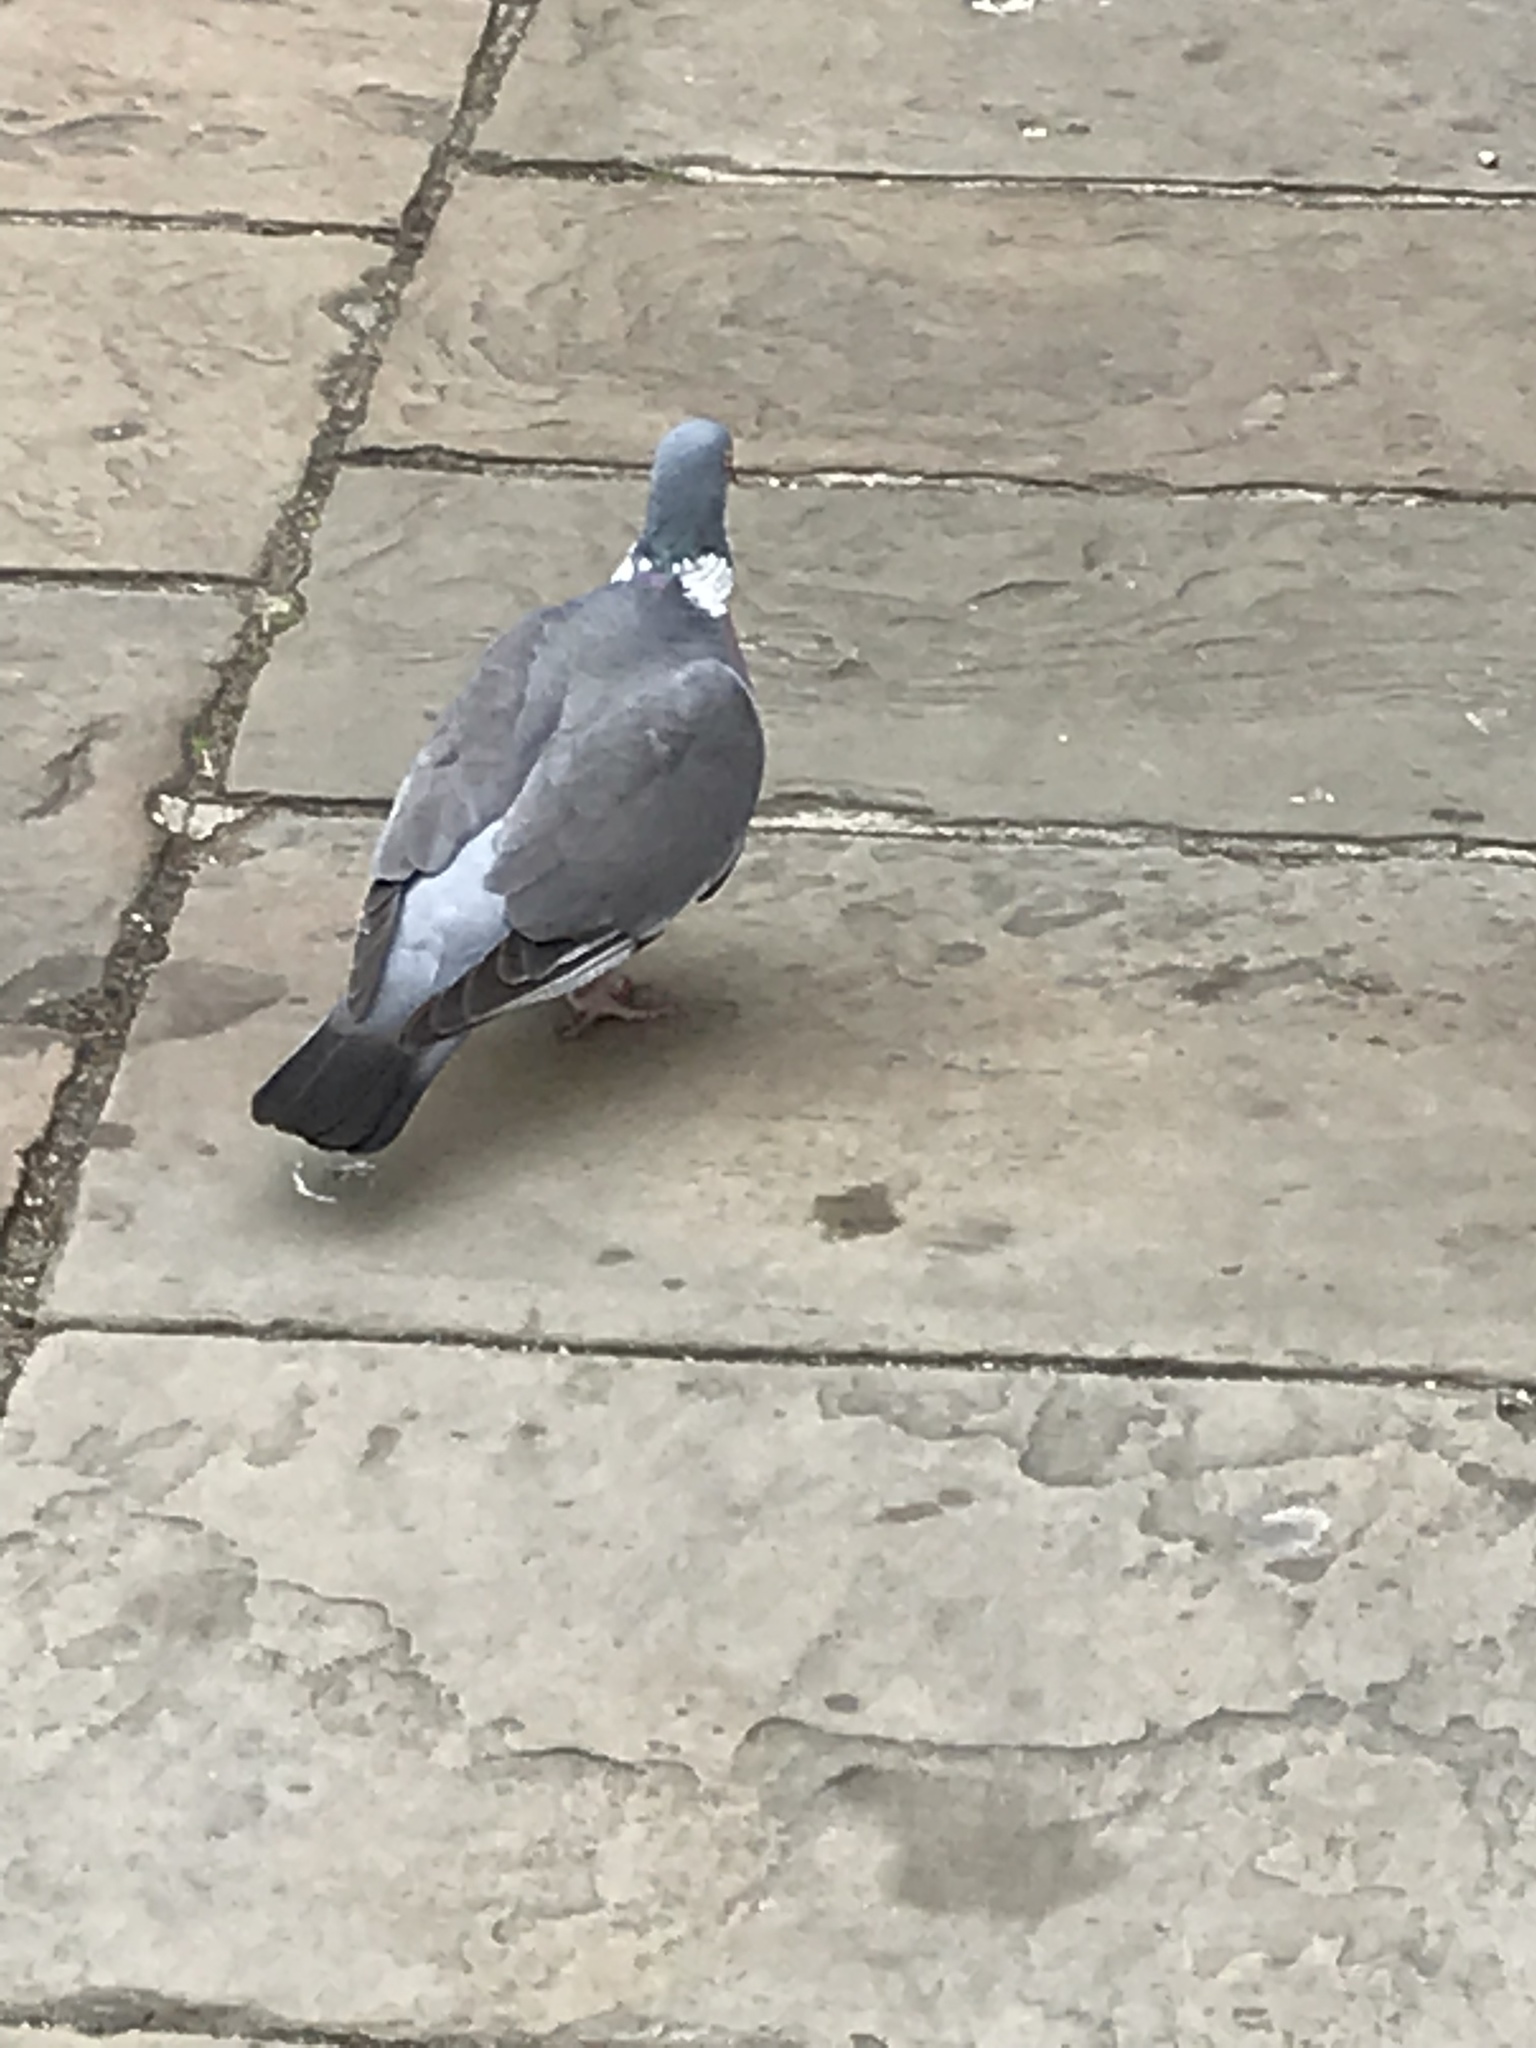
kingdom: Animalia
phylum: Chordata
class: Aves
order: Columbiformes
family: Columbidae
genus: Columba
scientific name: Columba palumbus
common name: Common wood pigeon
